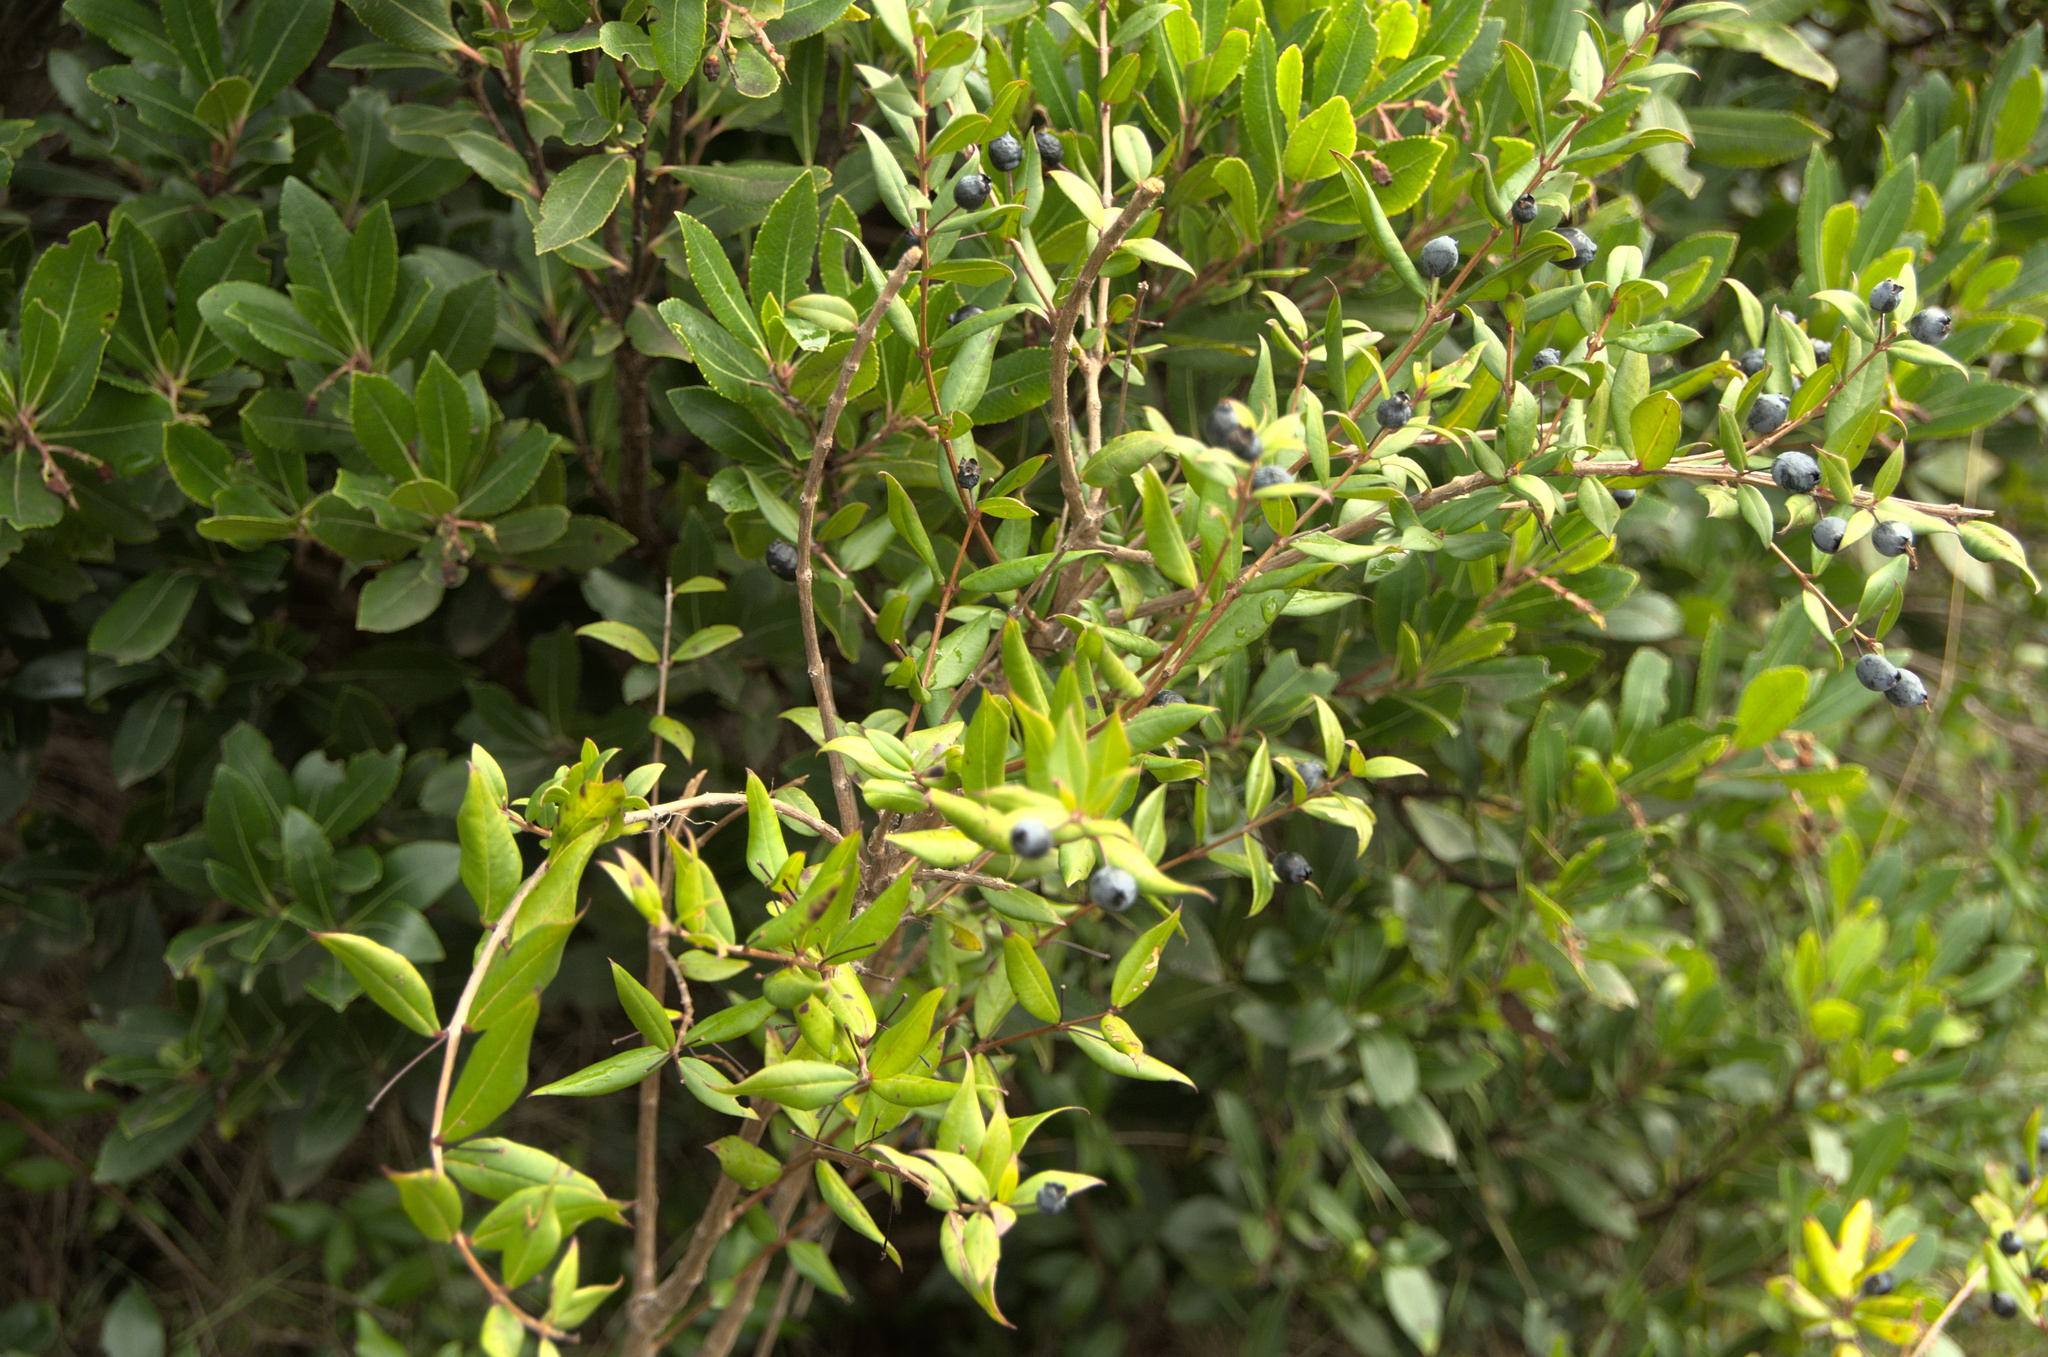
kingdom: Plantae
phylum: Tracheophyta
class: Magnoliopsida
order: Myrtales
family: Myrtaceae
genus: Myrtus
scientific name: Myrtus communis
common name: Myrtle
